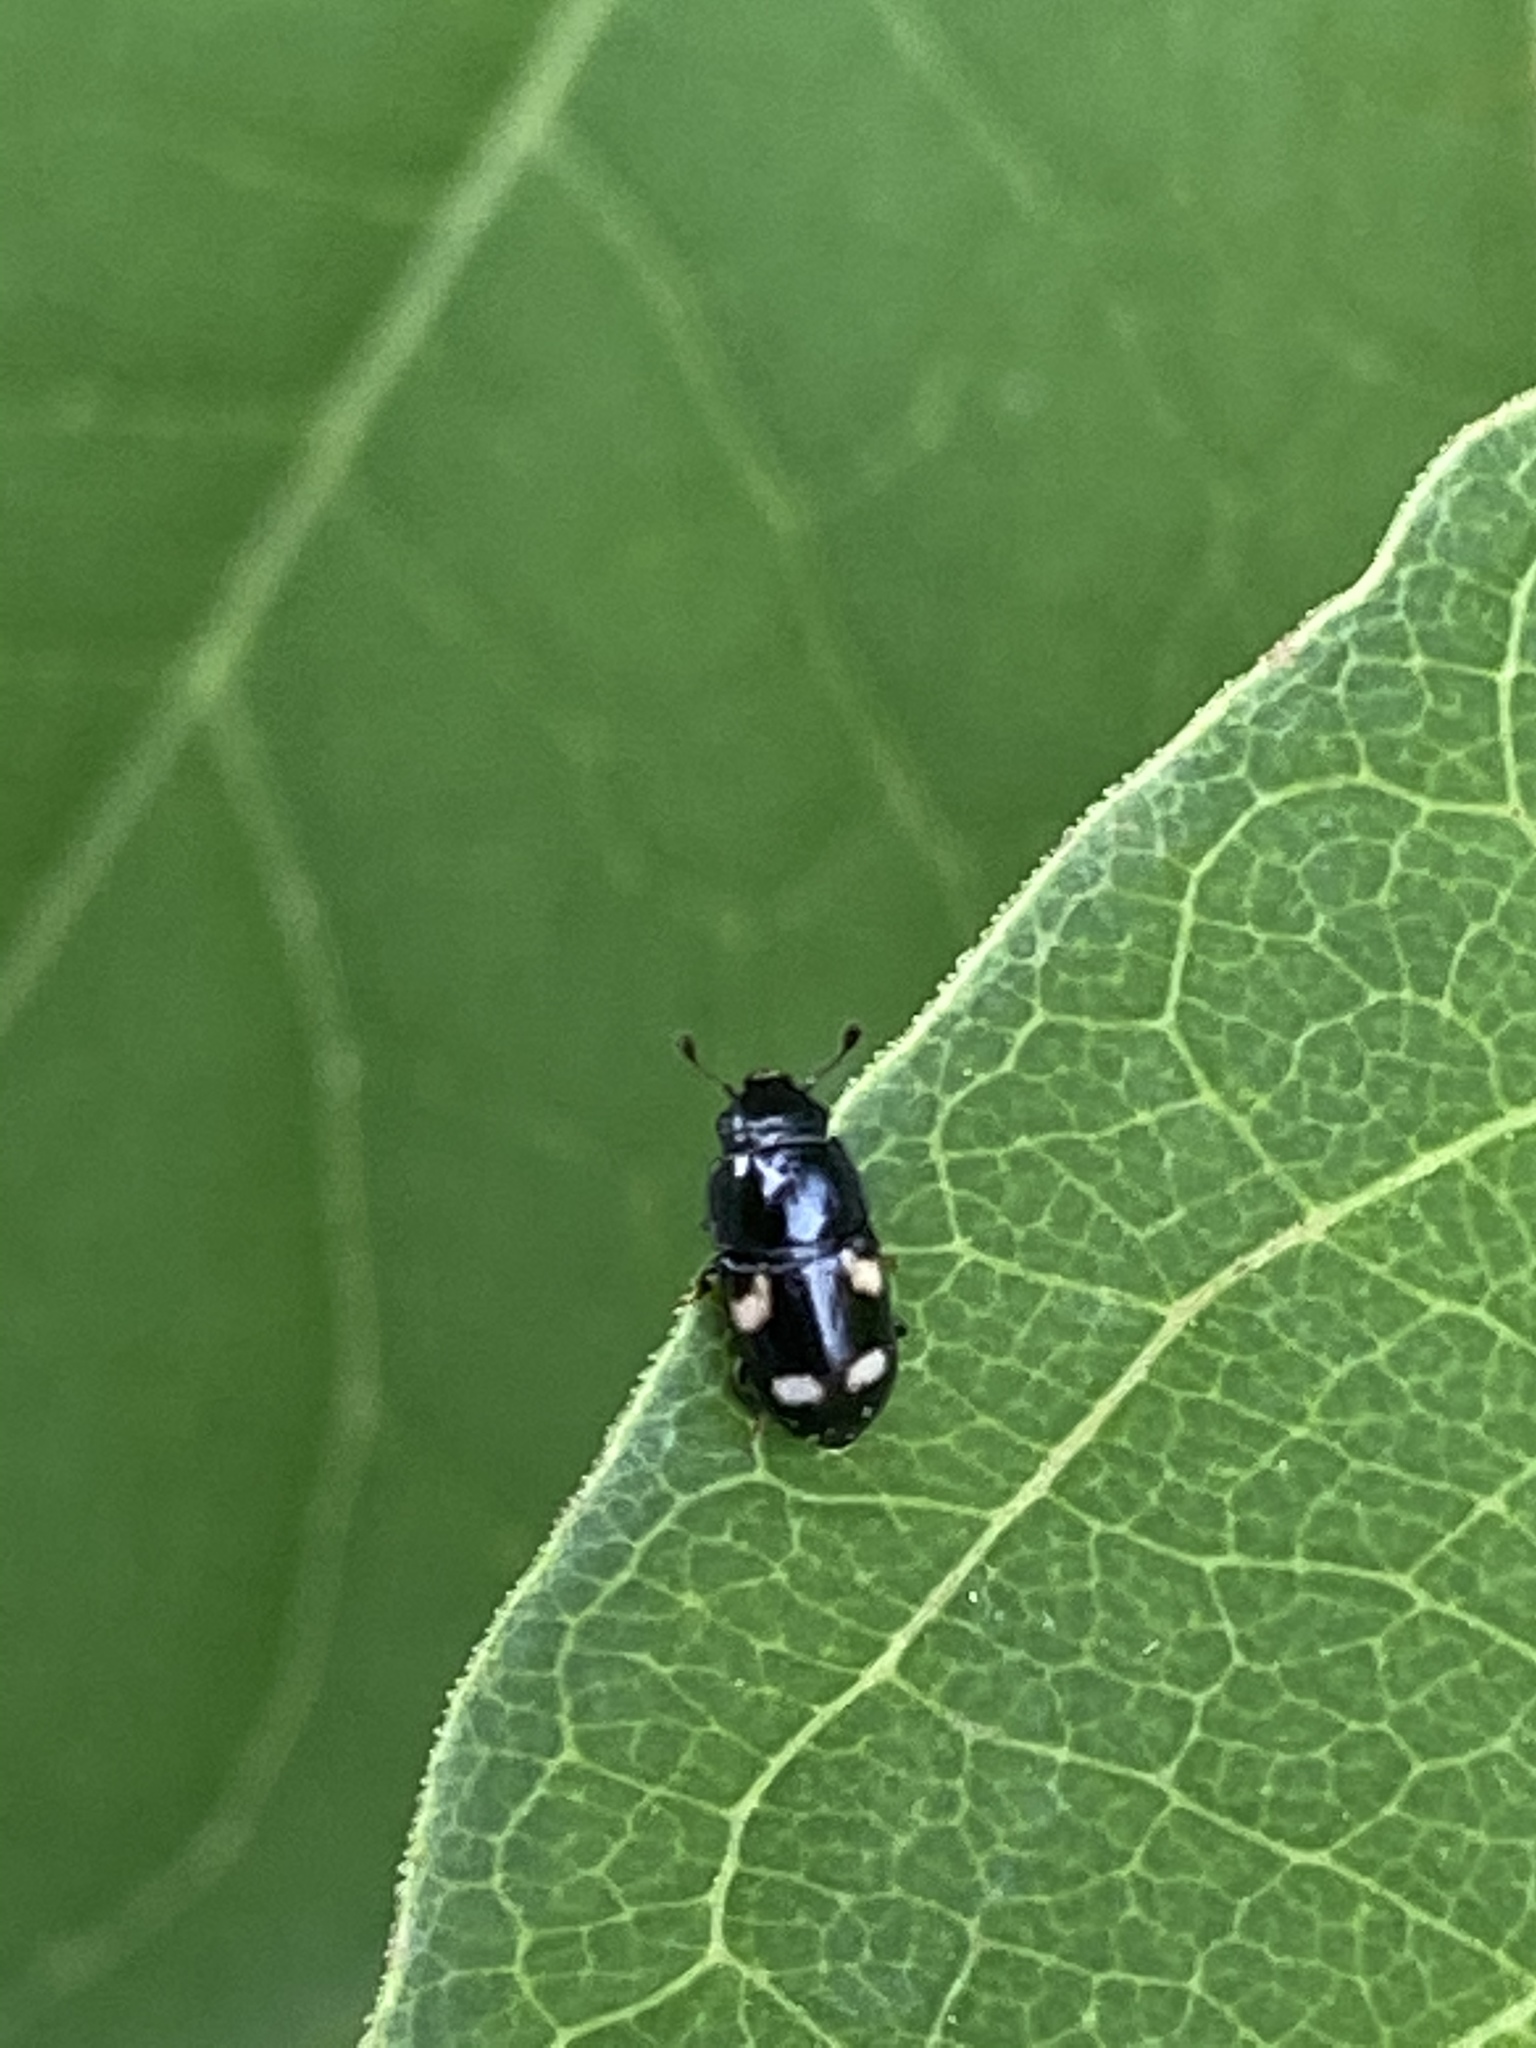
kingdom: Animalia
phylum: Arthropoda
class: Insecta
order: Coleoptera
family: Nitidulidae
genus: Glischrochilus
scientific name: Glischrochilus quadrisignatus
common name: Picnic beetle
